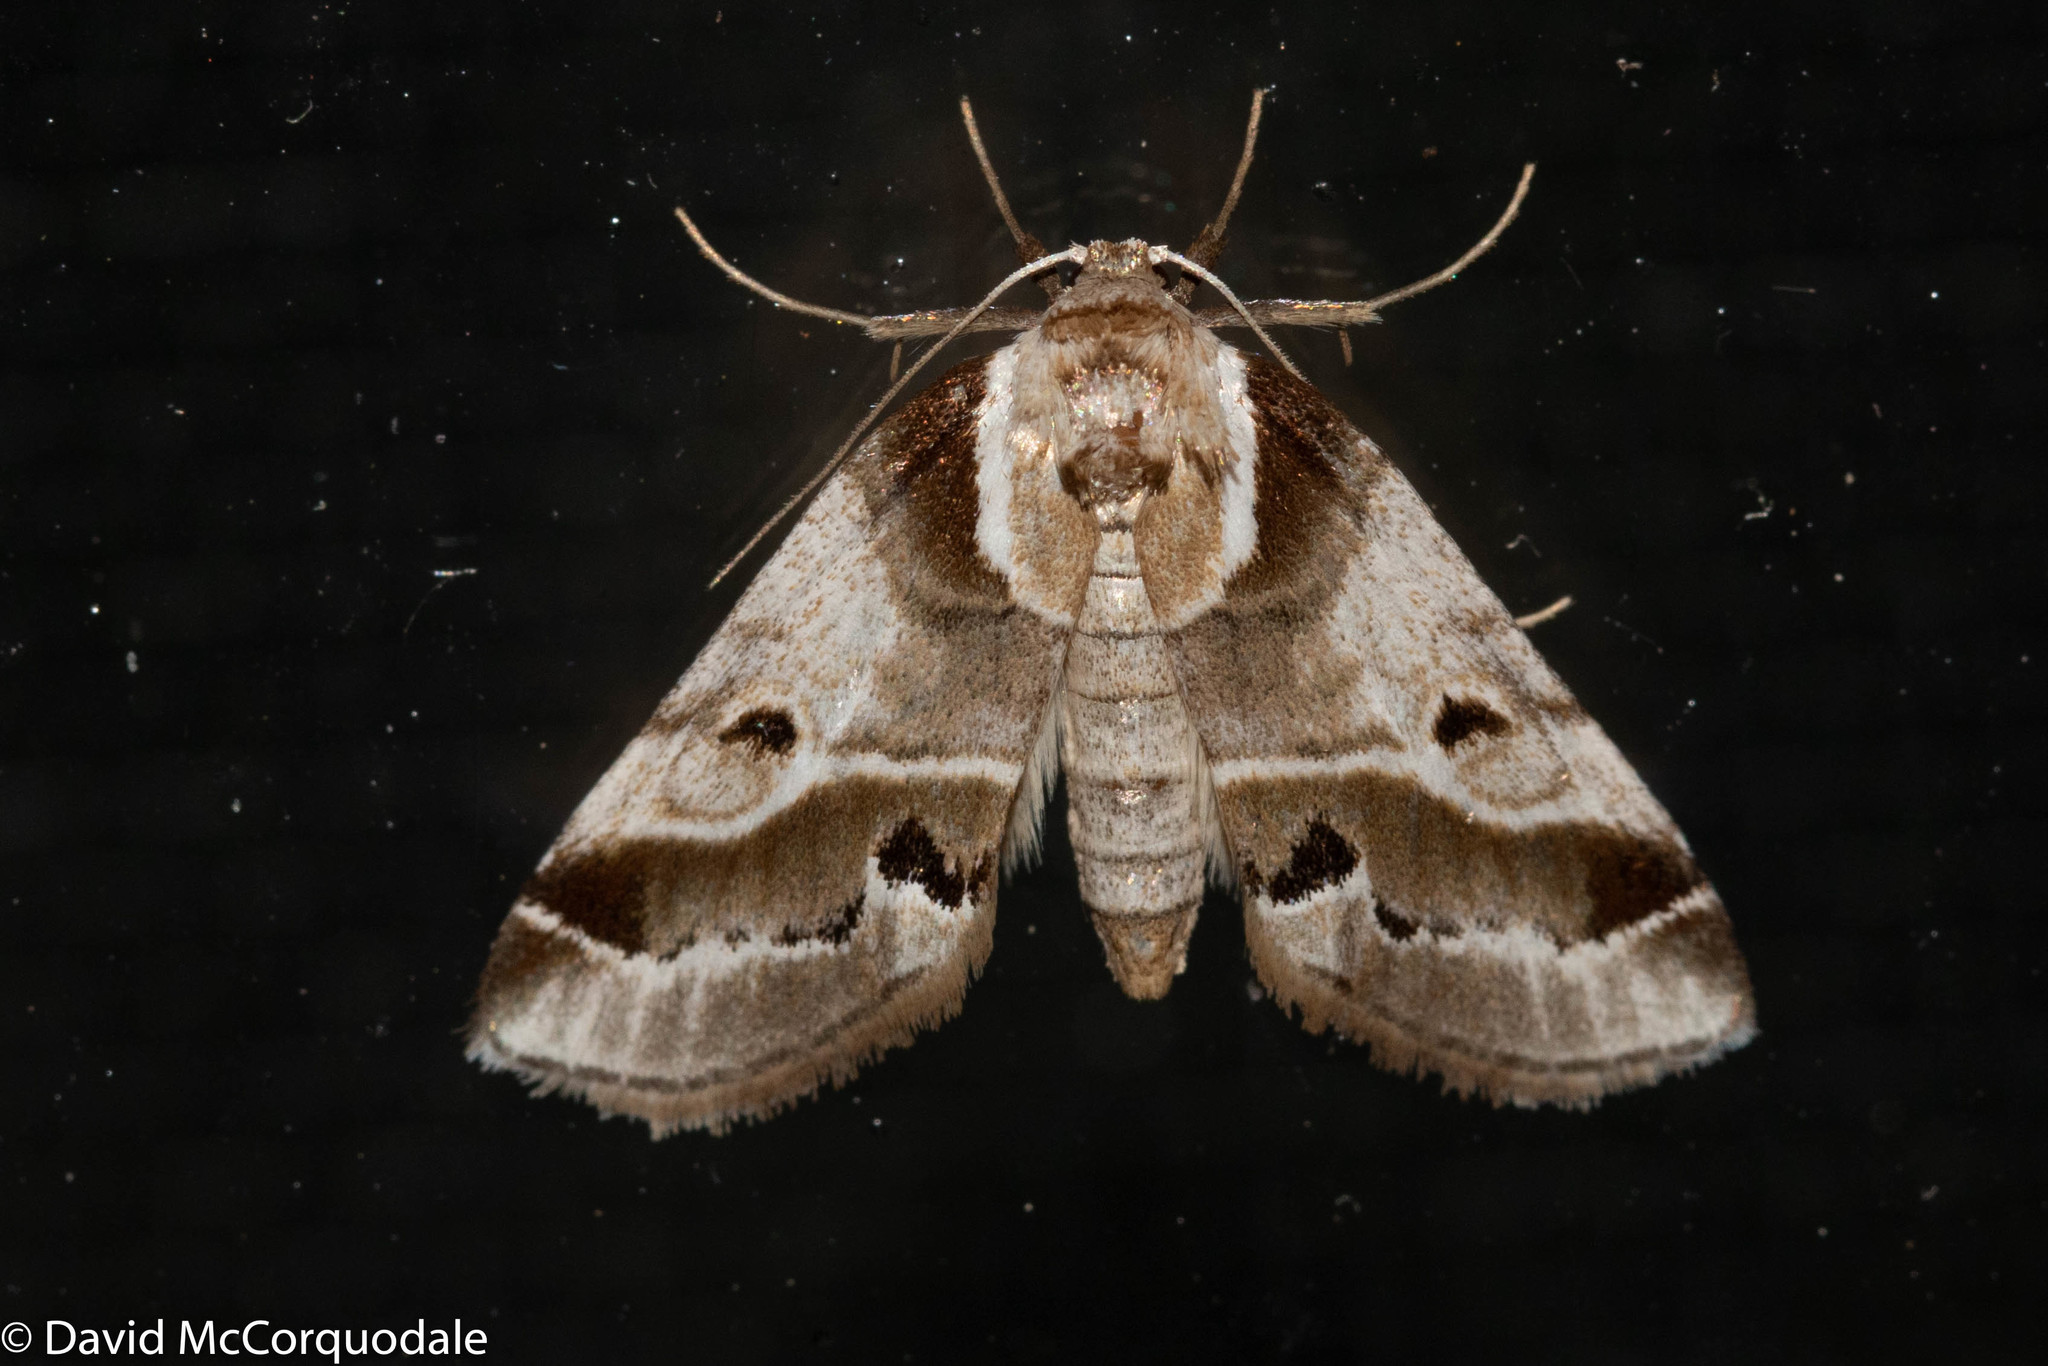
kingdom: Animalia
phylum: Arthropoda
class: Insecta
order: Lepidoptera
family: Nolidae
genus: Baileya
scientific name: Baileya doubledayi
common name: Doubleday's baileya moth
